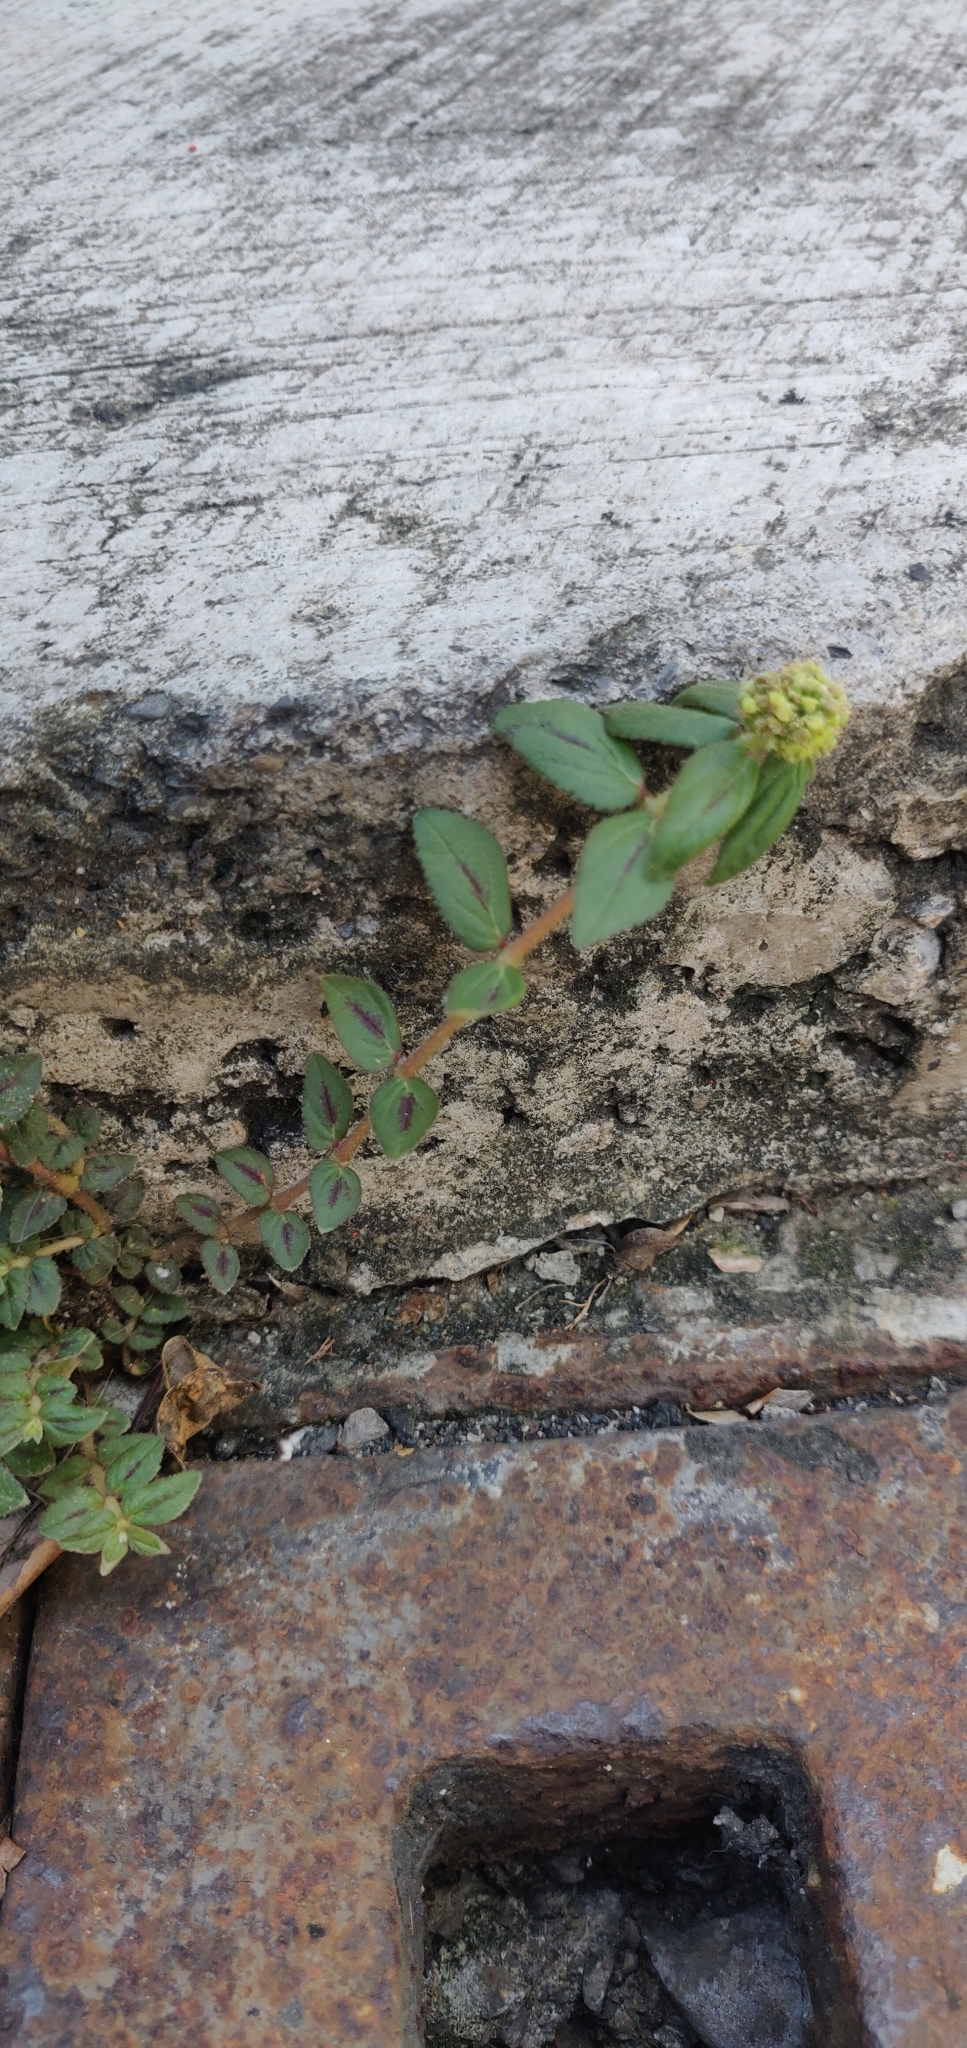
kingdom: Plantae
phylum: Tracheophyta
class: Magnoliopsida
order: Malpighiales
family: Euphorbiaceae
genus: Euphorbia
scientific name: Euphorbia hirta
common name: Pillpod sandmat
